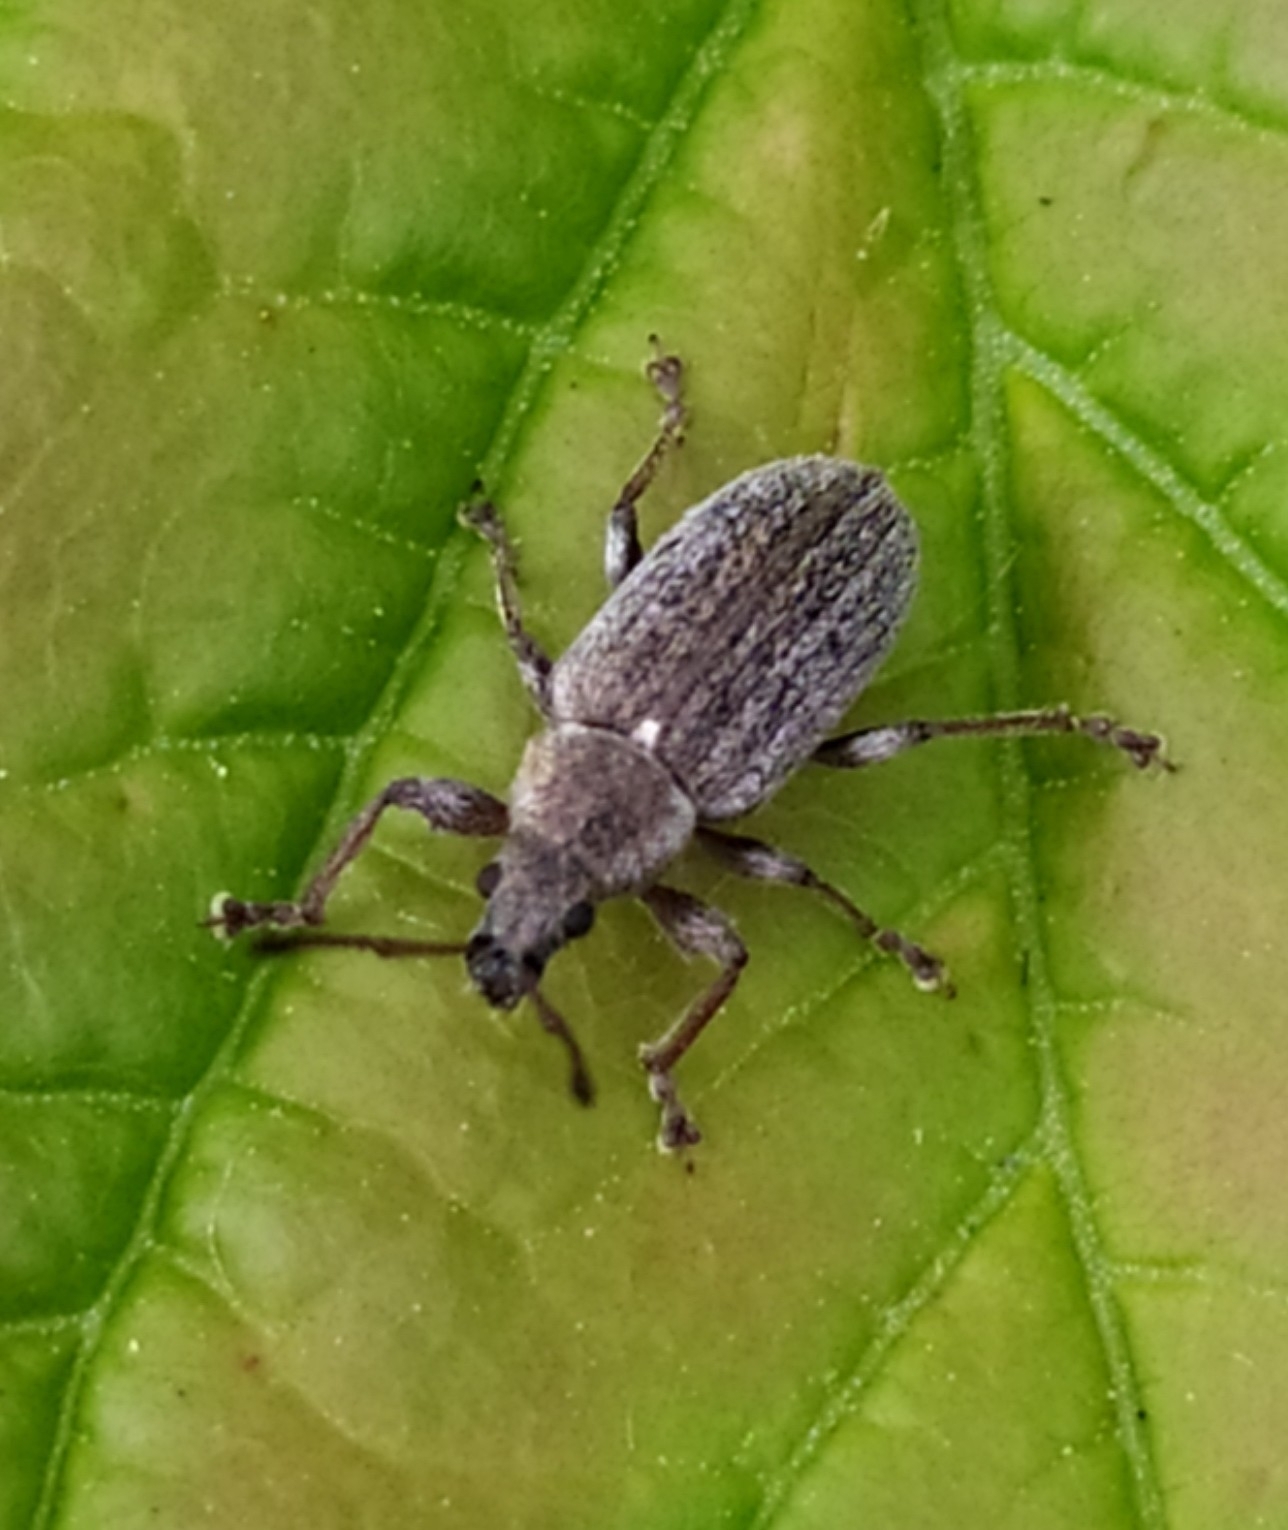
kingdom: Animalia
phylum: Arthropoda
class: Insecta
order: Coleoptera
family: Curculionidae
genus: Phyllobius
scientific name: Phyllobius pyri
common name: Common leaf weevil
